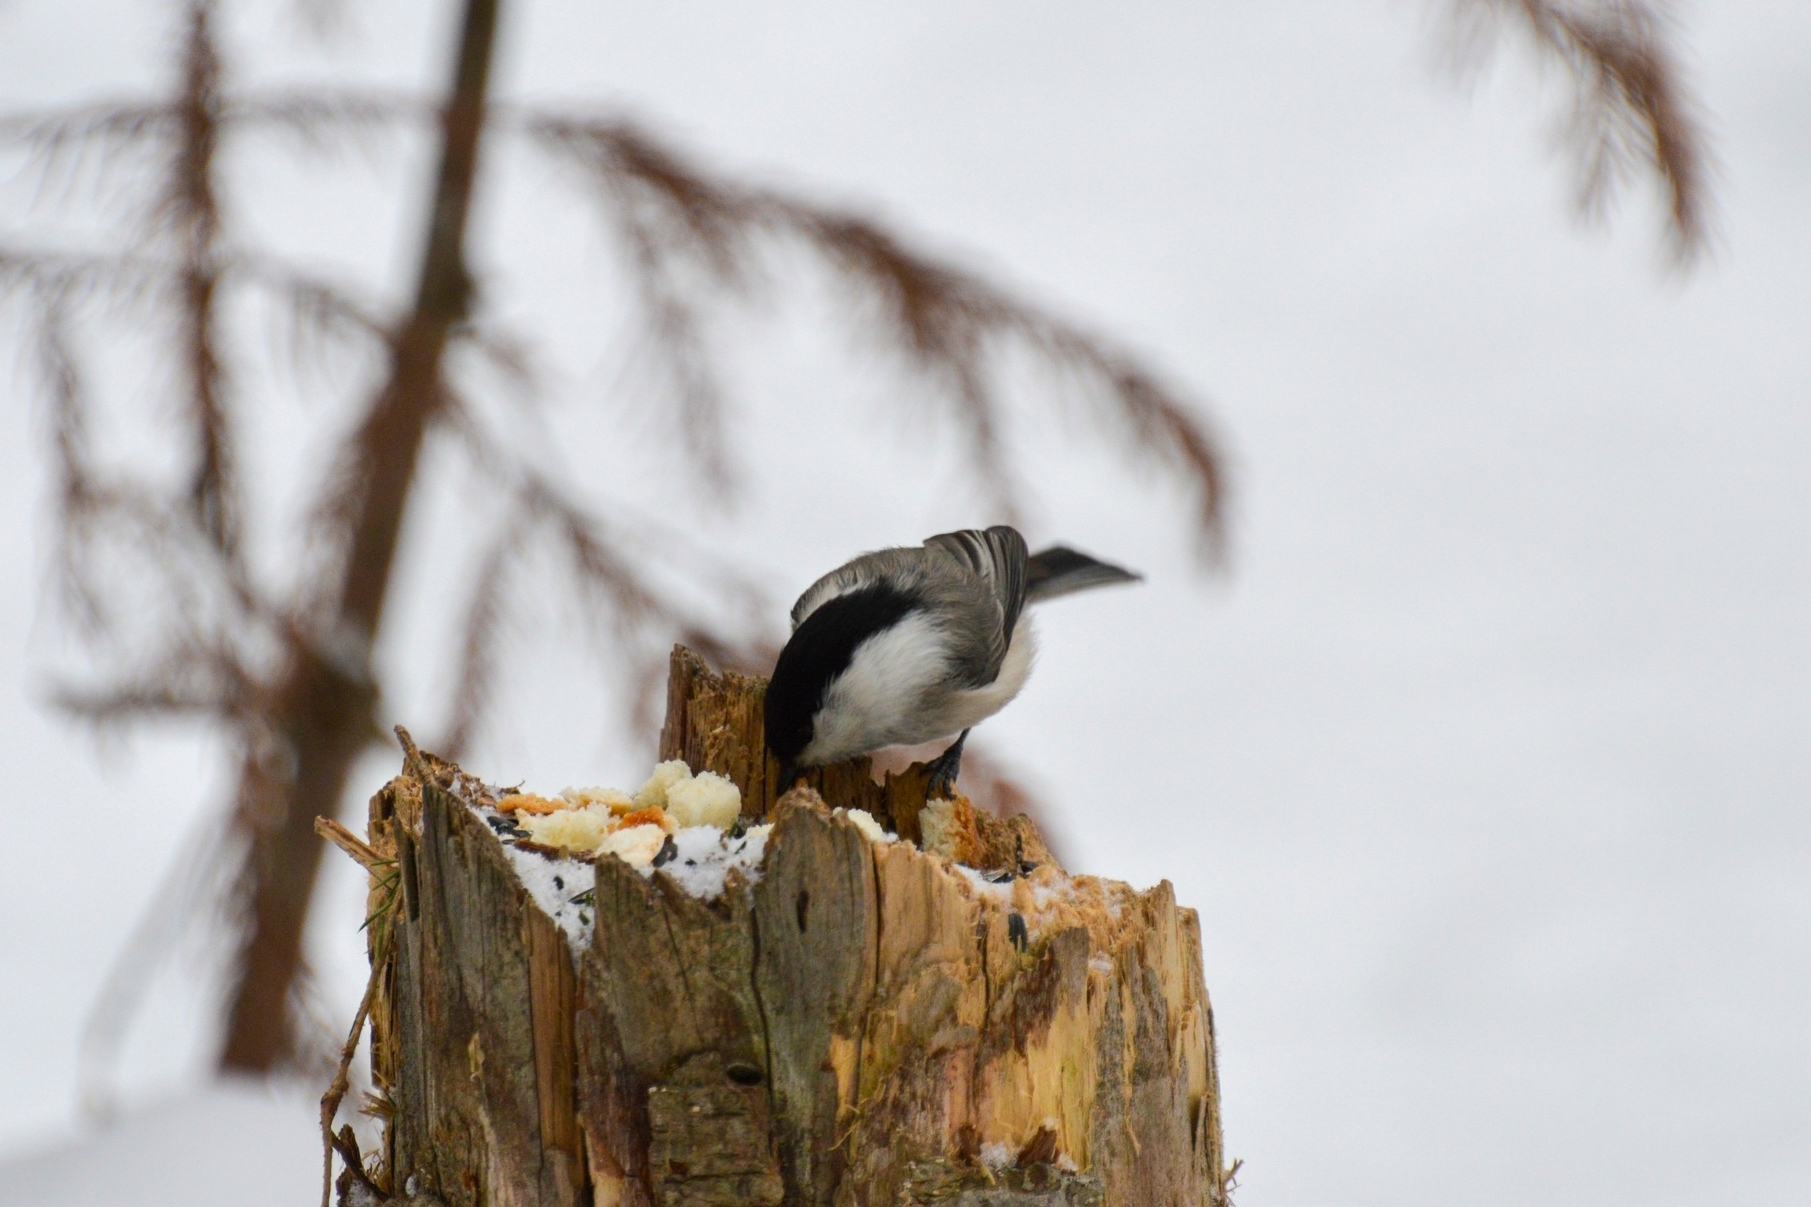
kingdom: Animalia
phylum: Chordata
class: Aves
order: Passeriformes
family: Paridae
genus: Poecile
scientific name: Poecile montanus
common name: Willow tit
